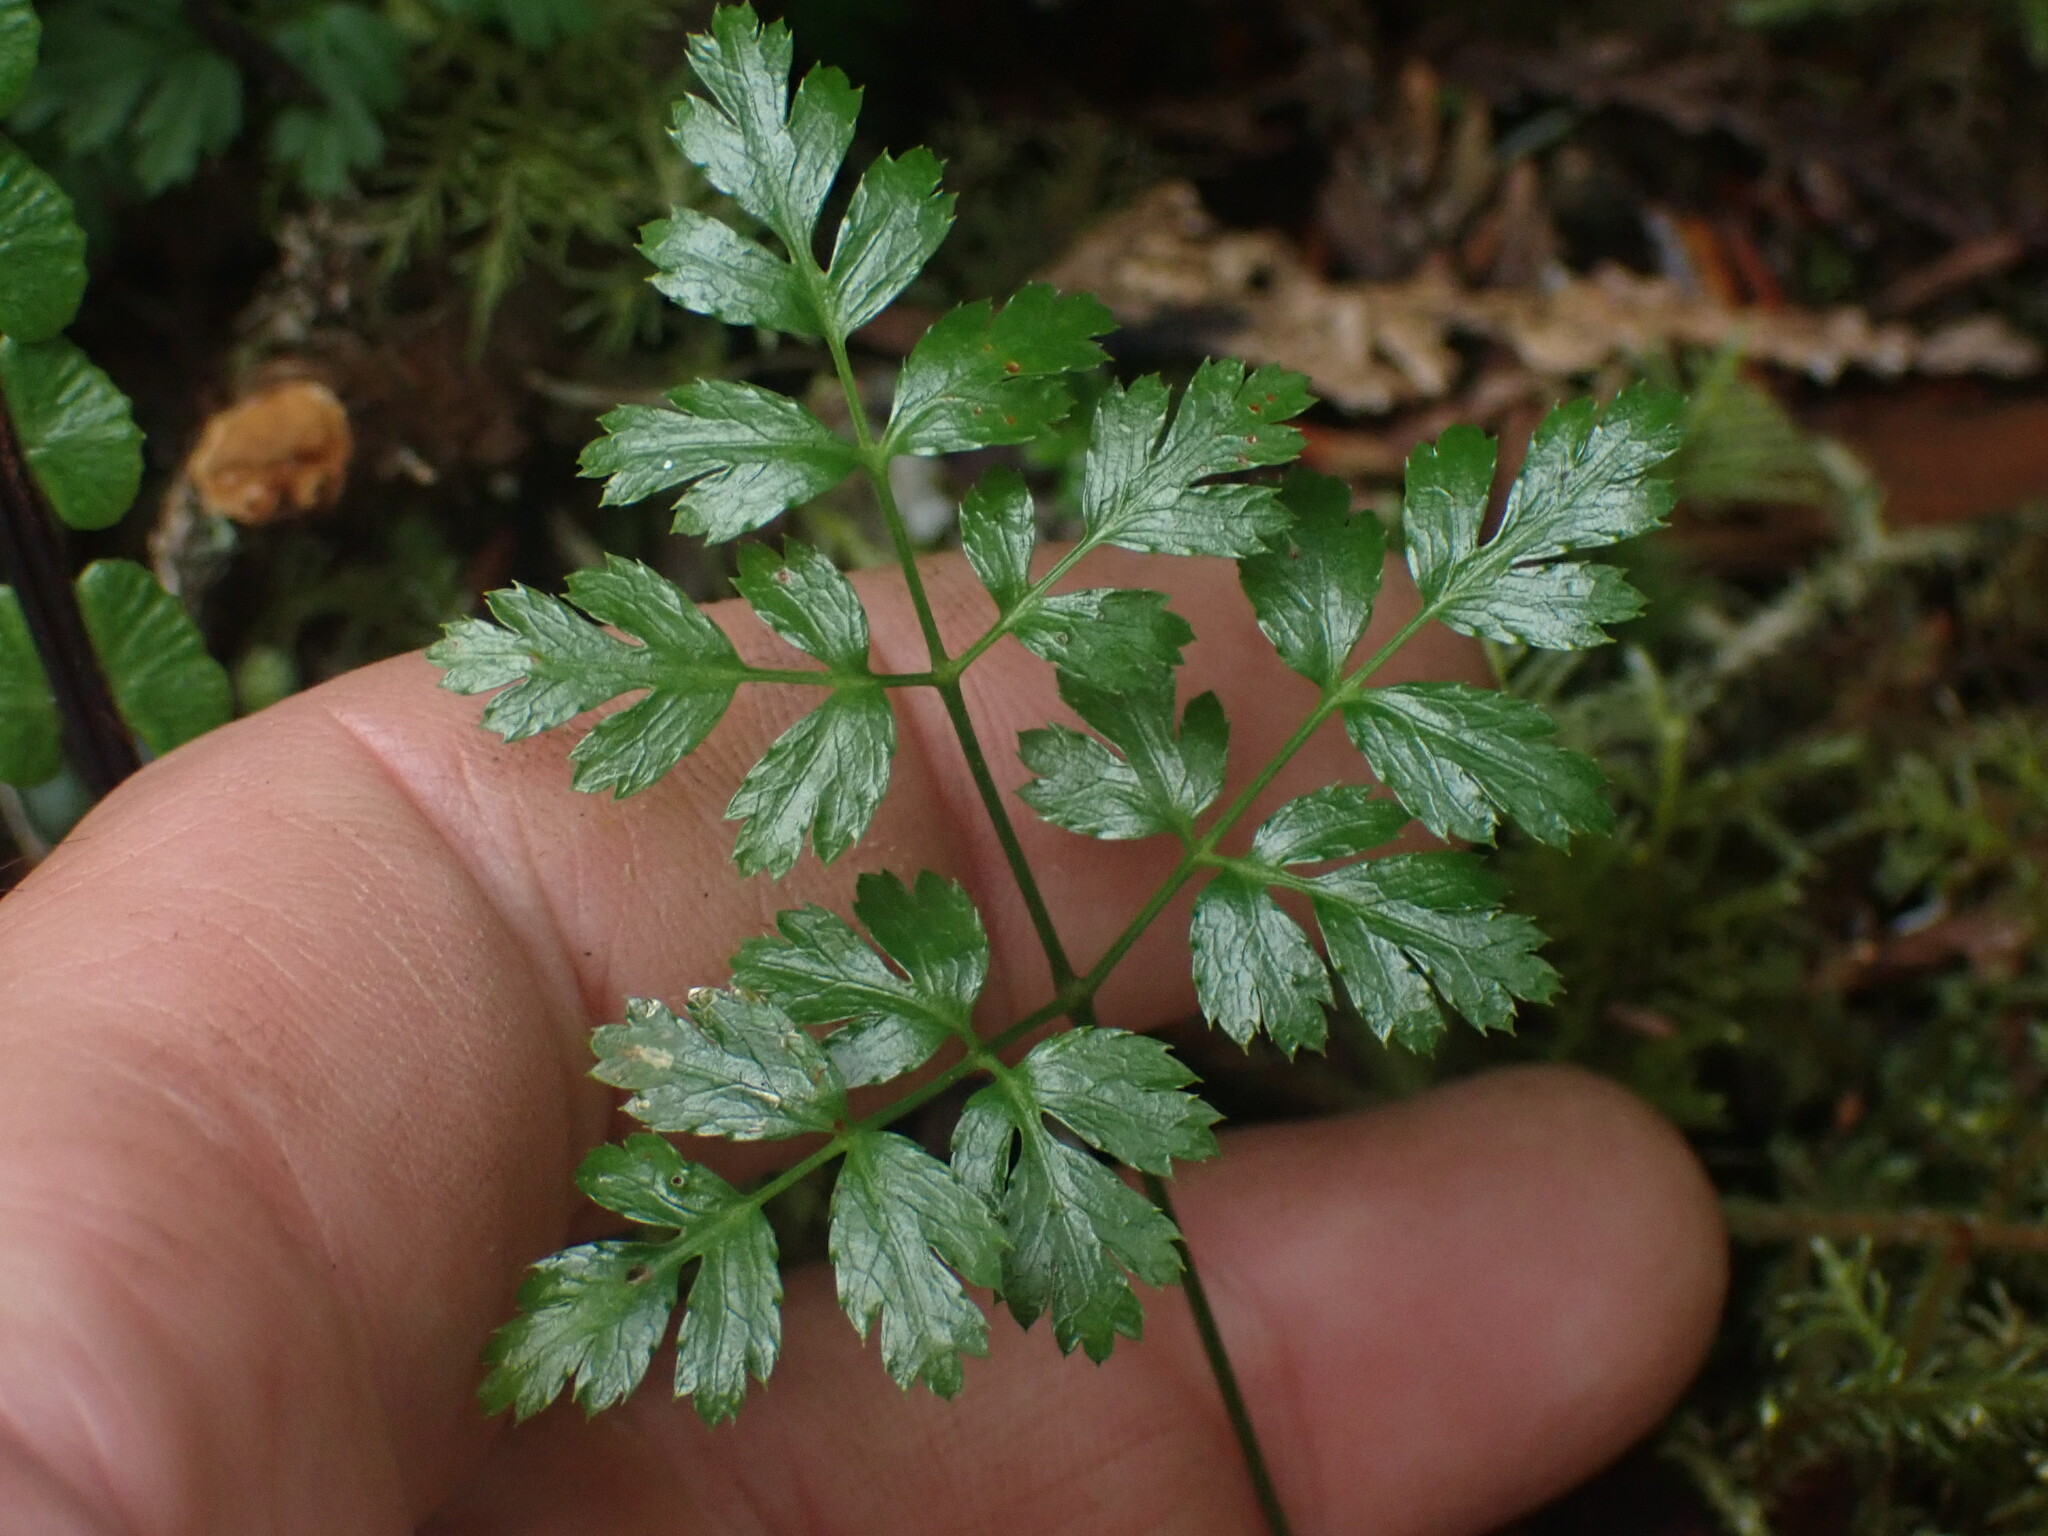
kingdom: Plantae
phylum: Tracheophyta
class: Magnoliopsida
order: Ranunculales
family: Ranunculaceae
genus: Coptis
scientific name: Coptis aspleniifolia
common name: Fern-leaved goldthread
